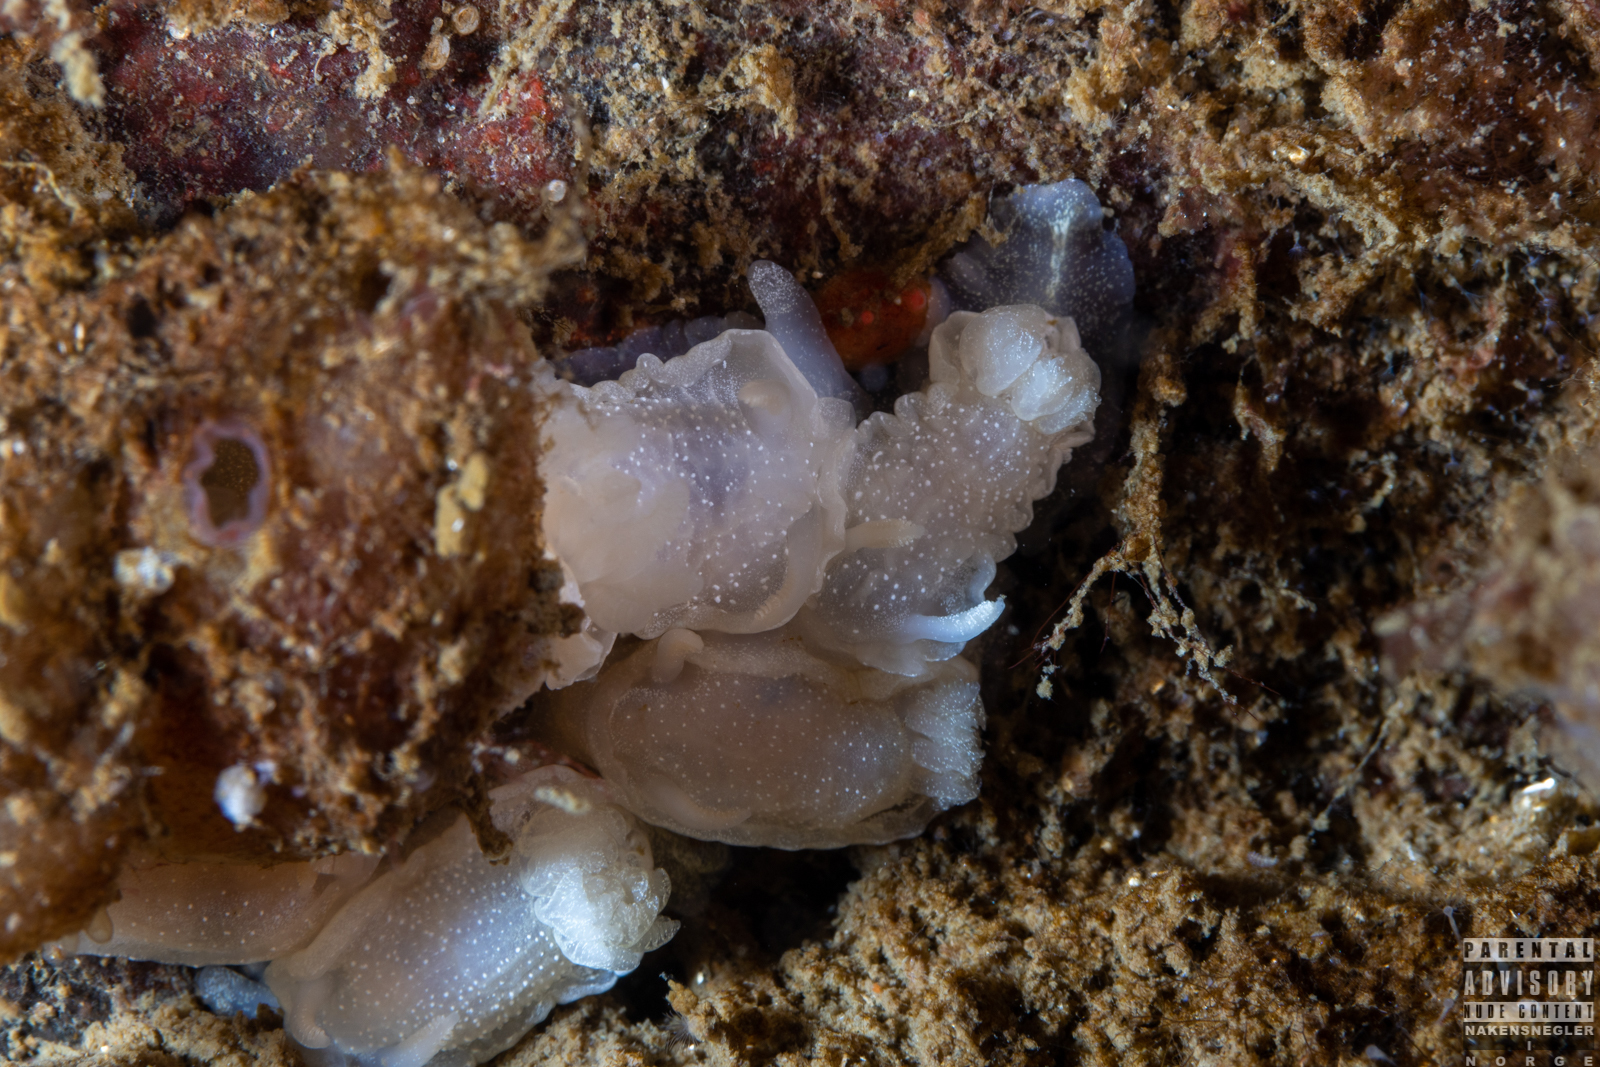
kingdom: Animalia
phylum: Mollusca
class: Gastropoda
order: Nudibranchia
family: Goniodorididae
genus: Okenia
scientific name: Okenia
